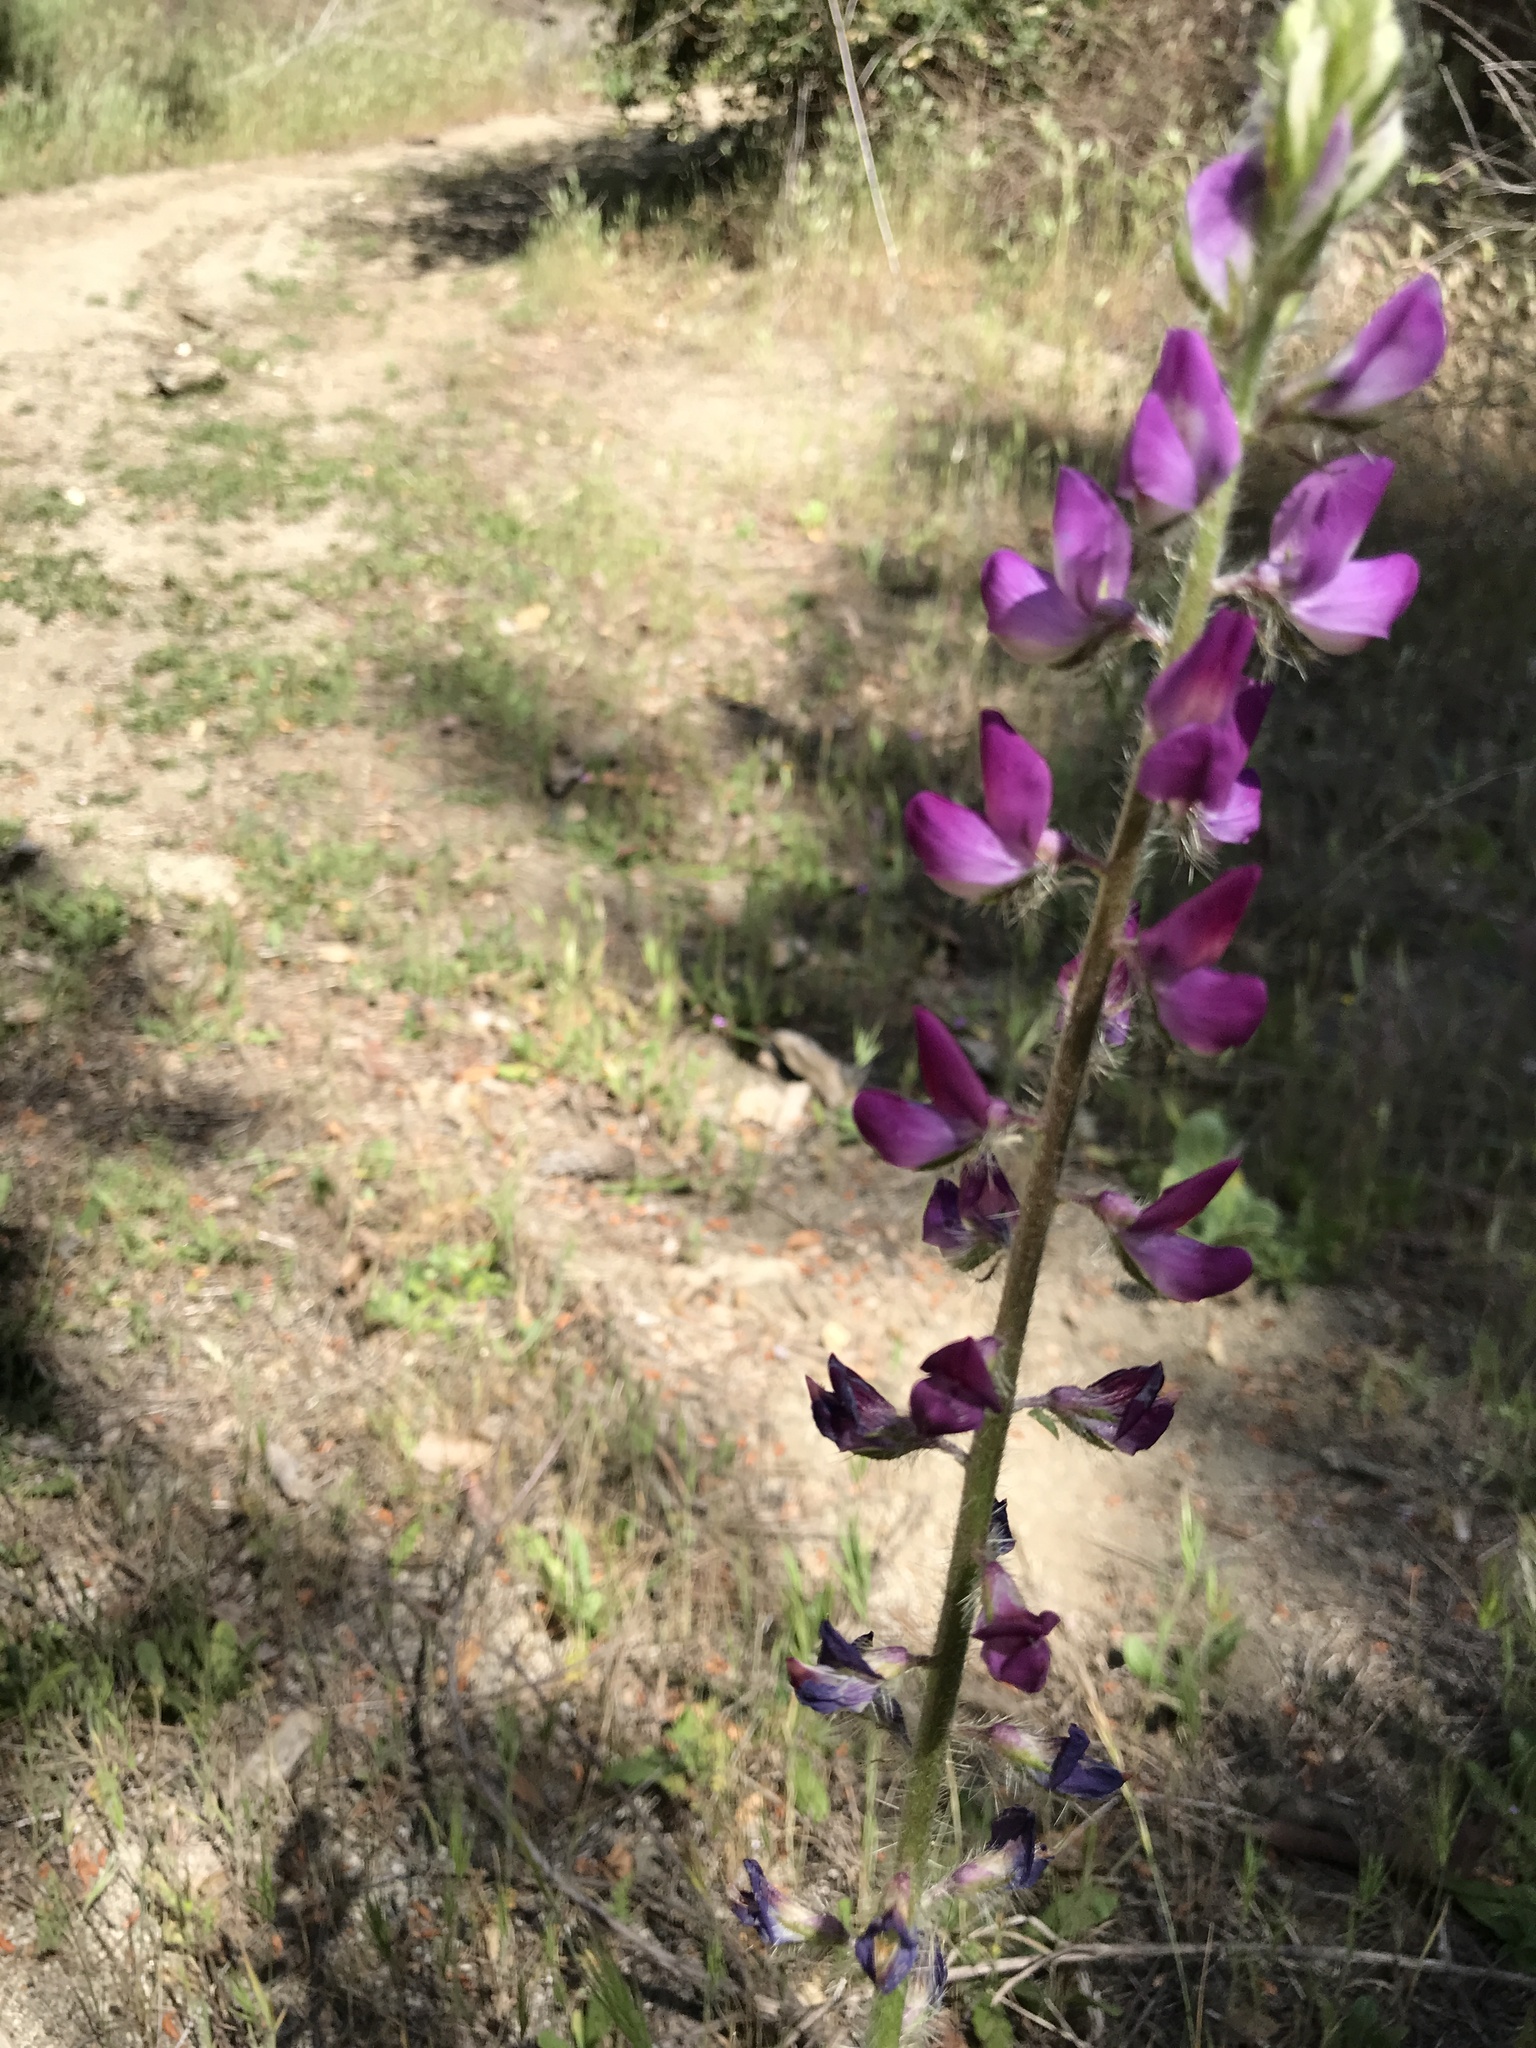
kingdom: Plantae
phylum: Tracheophyta
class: Magnoliopsida
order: Fabales
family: Fabaceae
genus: Lupinus
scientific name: Lupinus hirsutissimus
